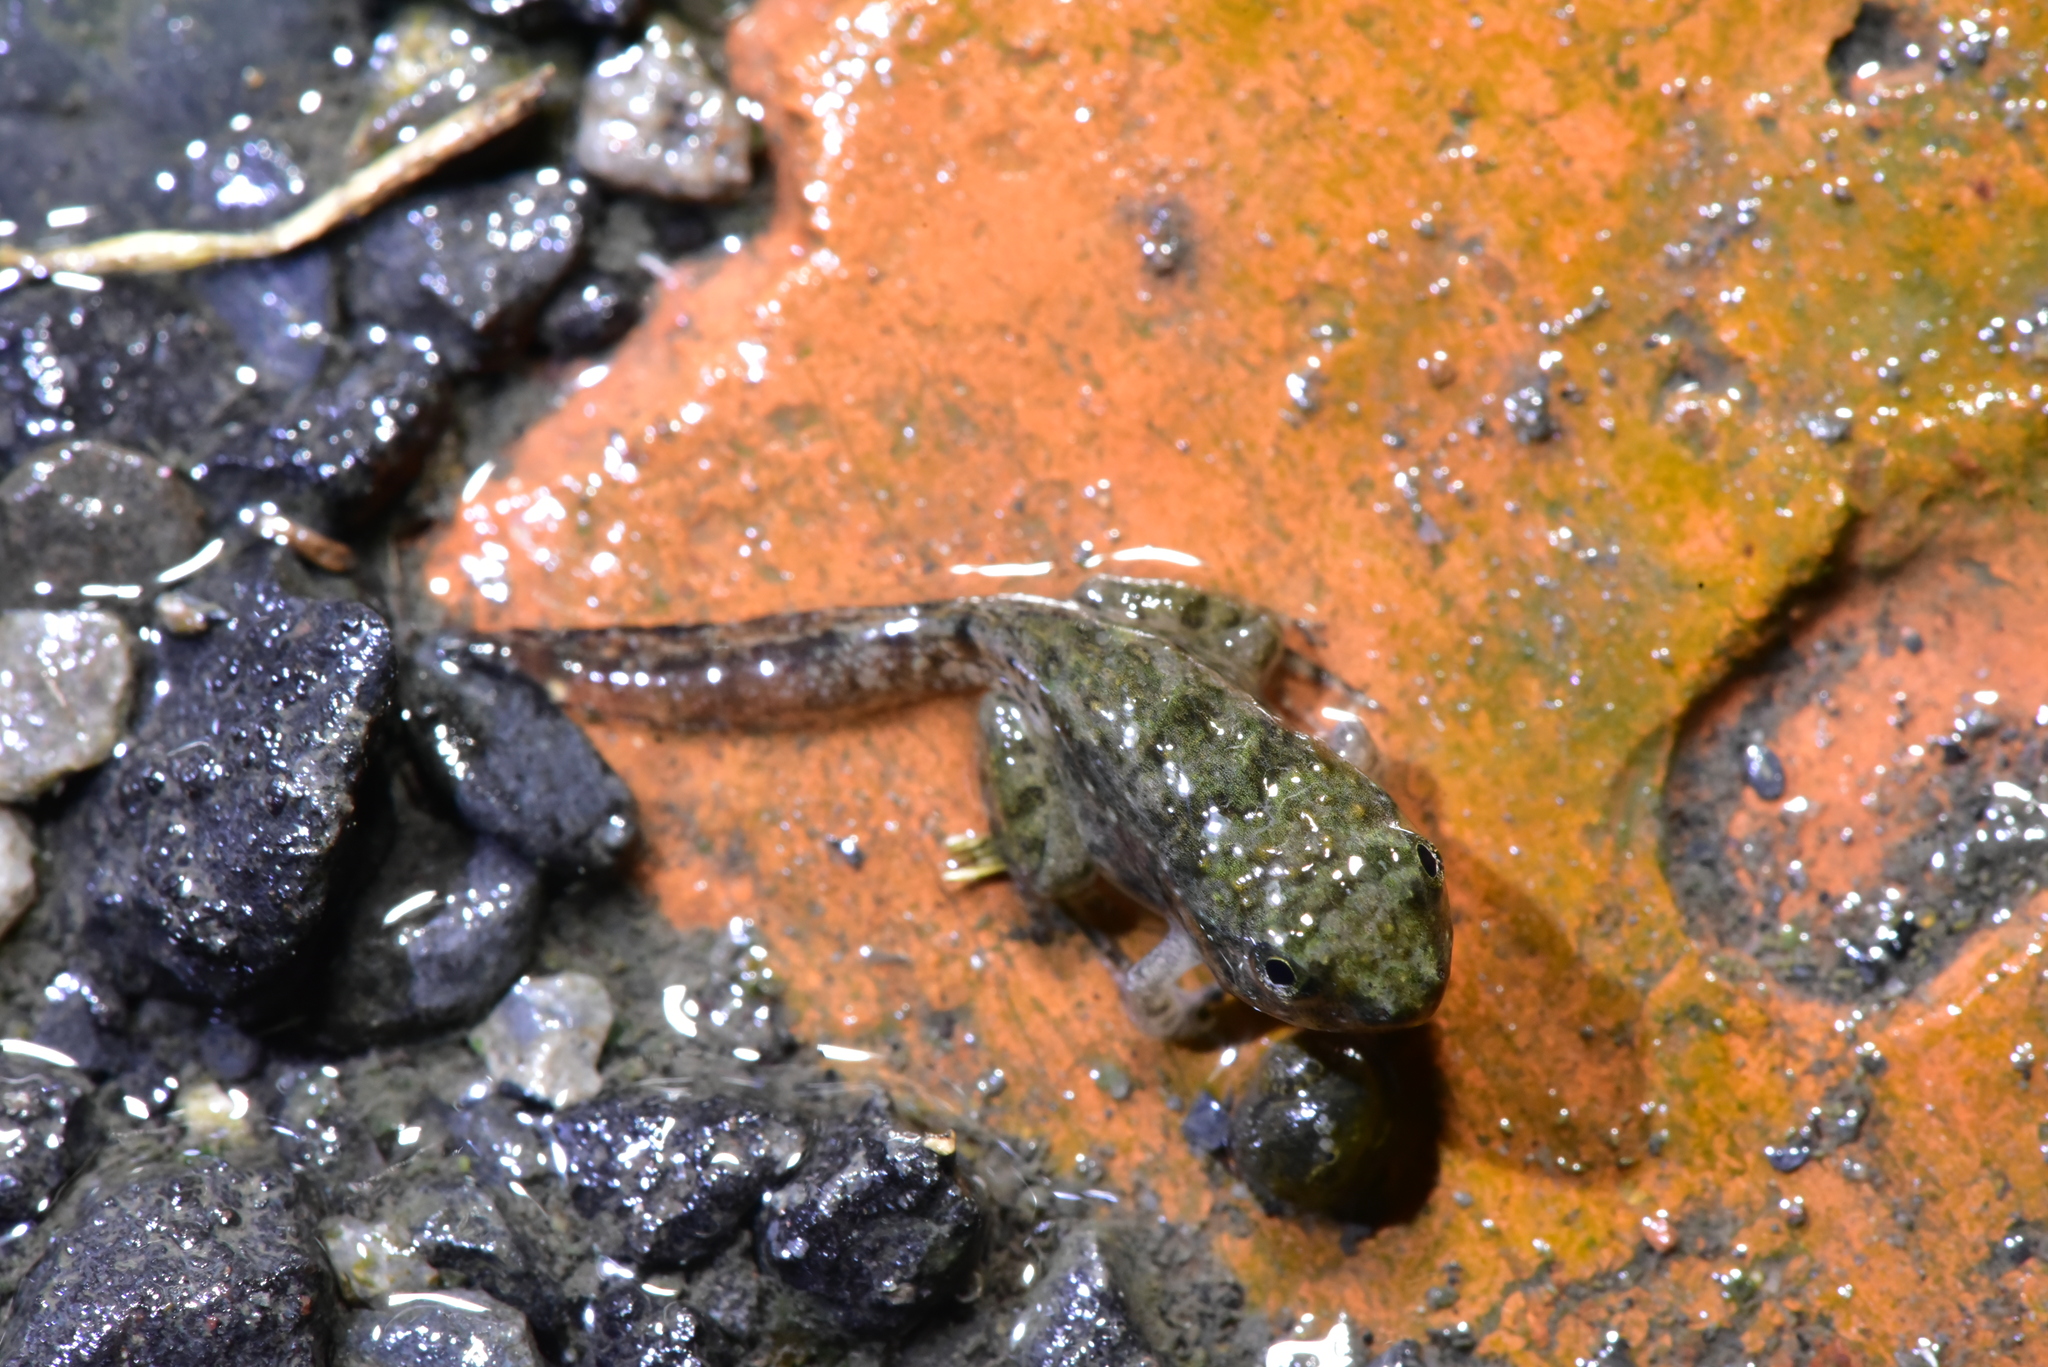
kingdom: Animalia
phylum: Chordata
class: Amphibia
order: Anura
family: Dicroglossidae
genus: Fejervarya
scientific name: Fejervarya limnocharis
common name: Asian grass frog/common pond frog/field frog/grass frog/indian rice frog
